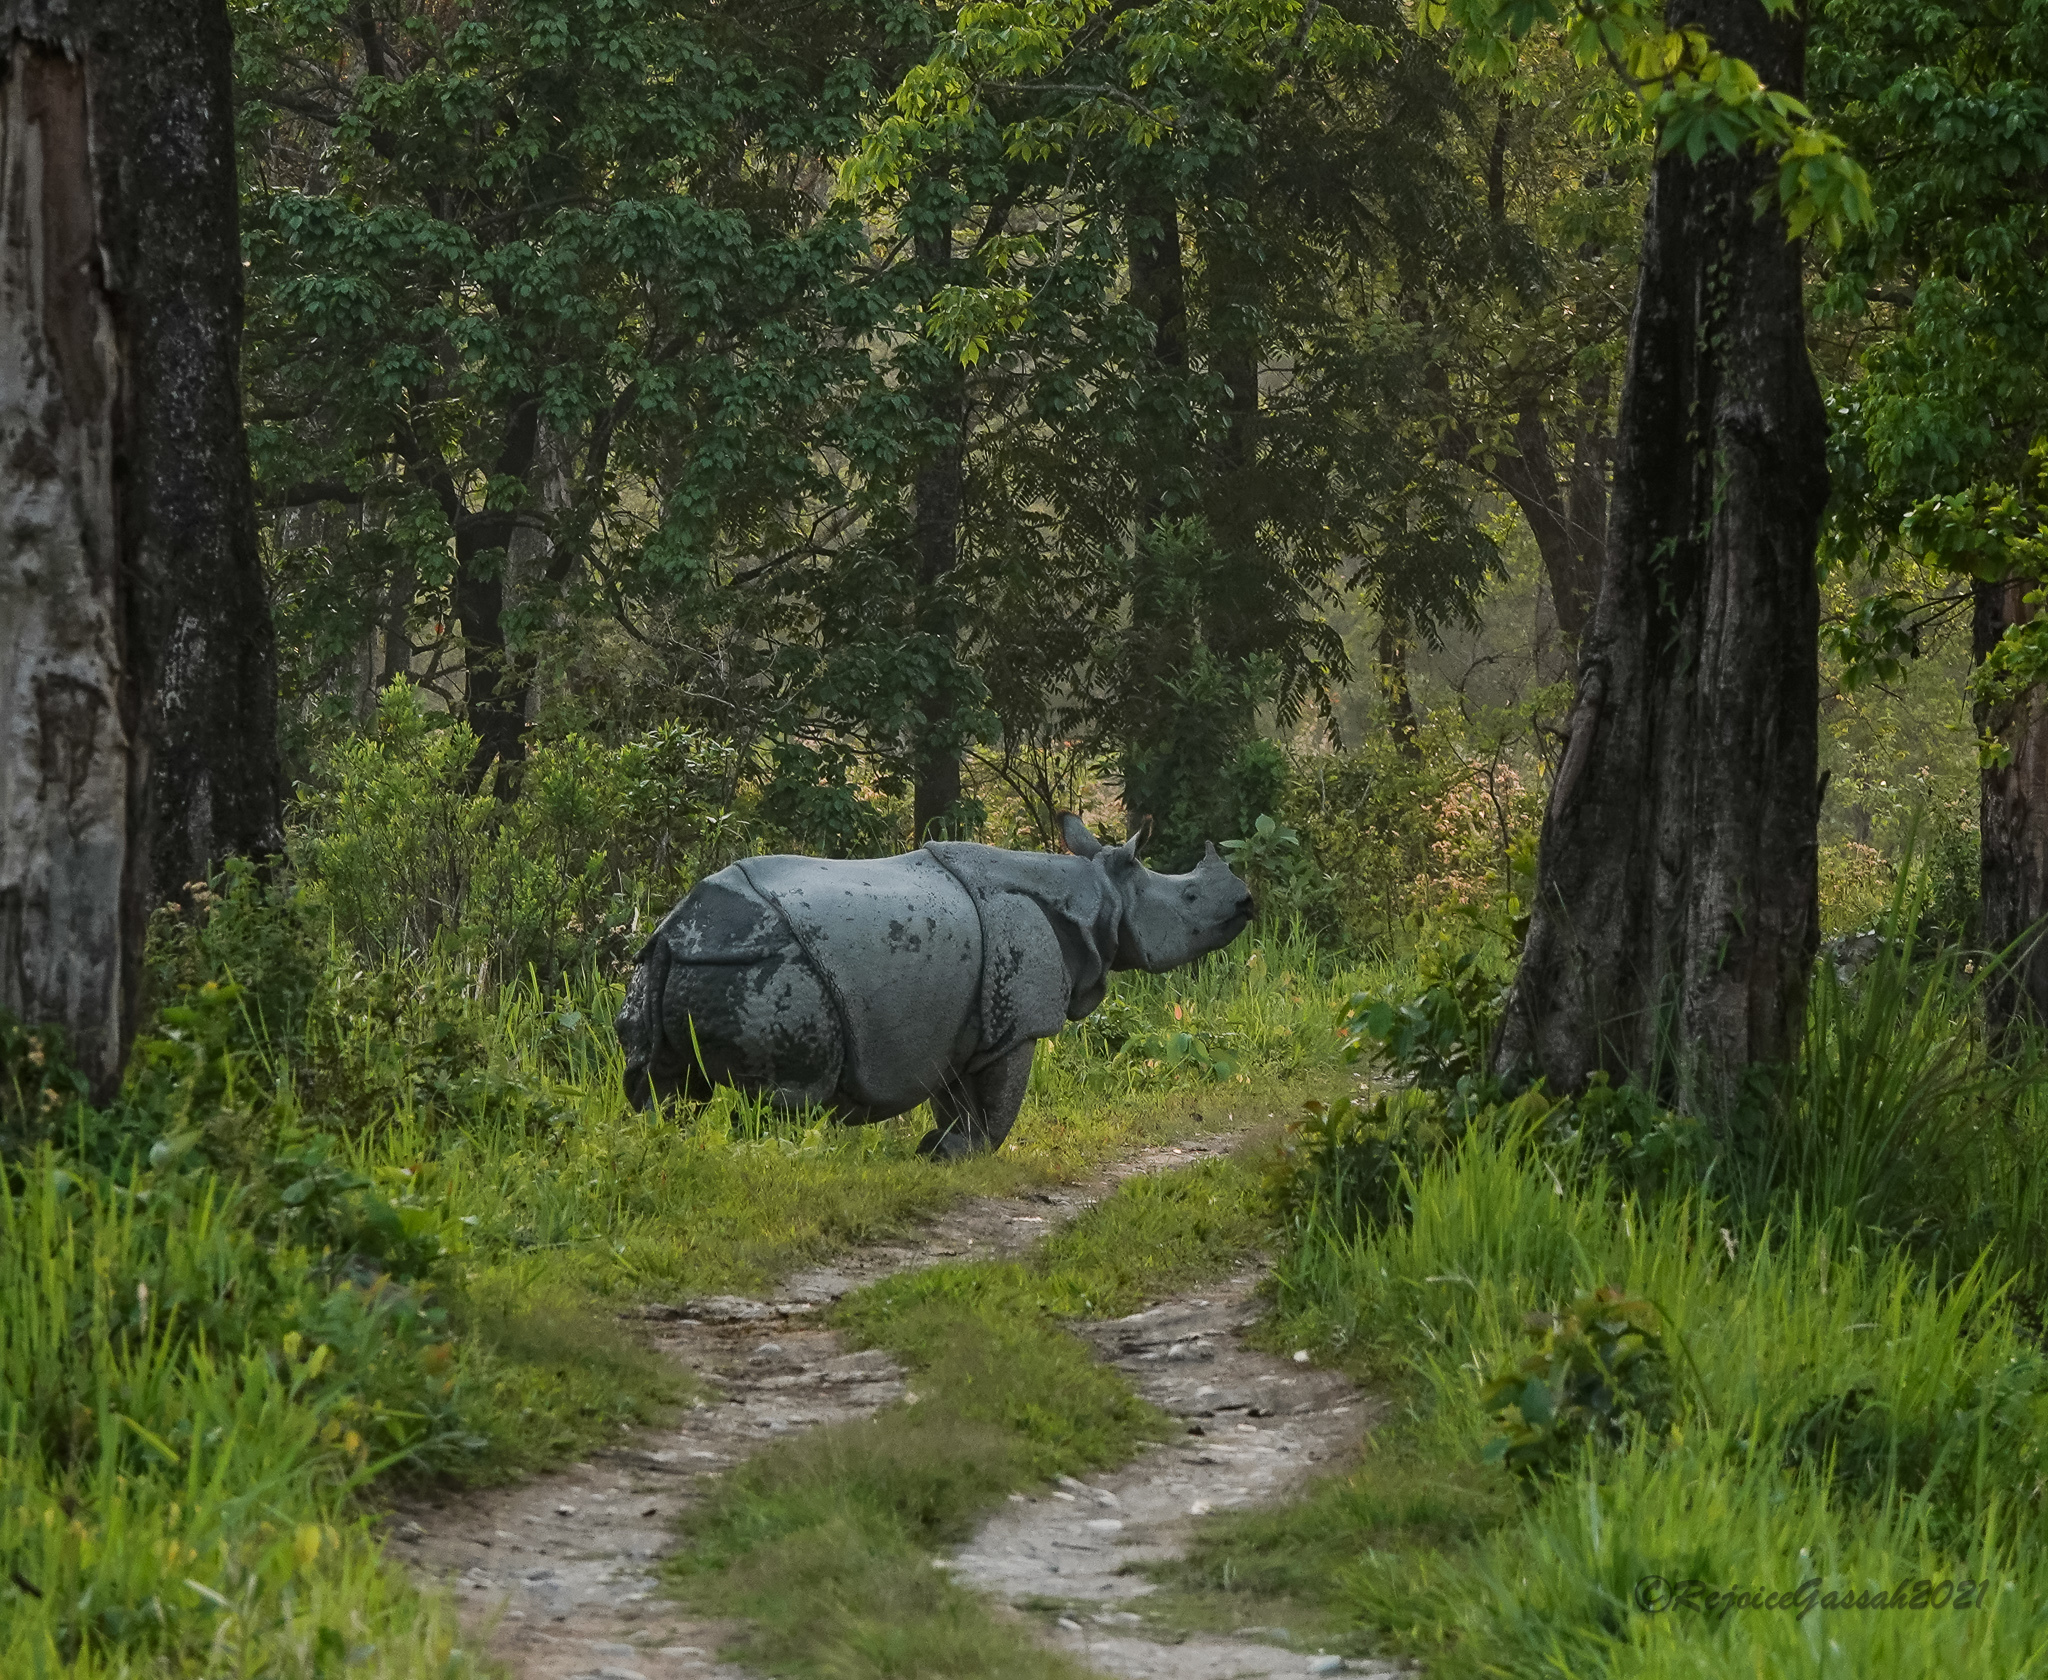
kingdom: Animalia
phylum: Chordata
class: Mammalia
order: Perissodactyla
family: Rhinocerotidae
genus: Rhinoceros
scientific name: Rhinoceros unicornis
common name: Indian rhinoceros
